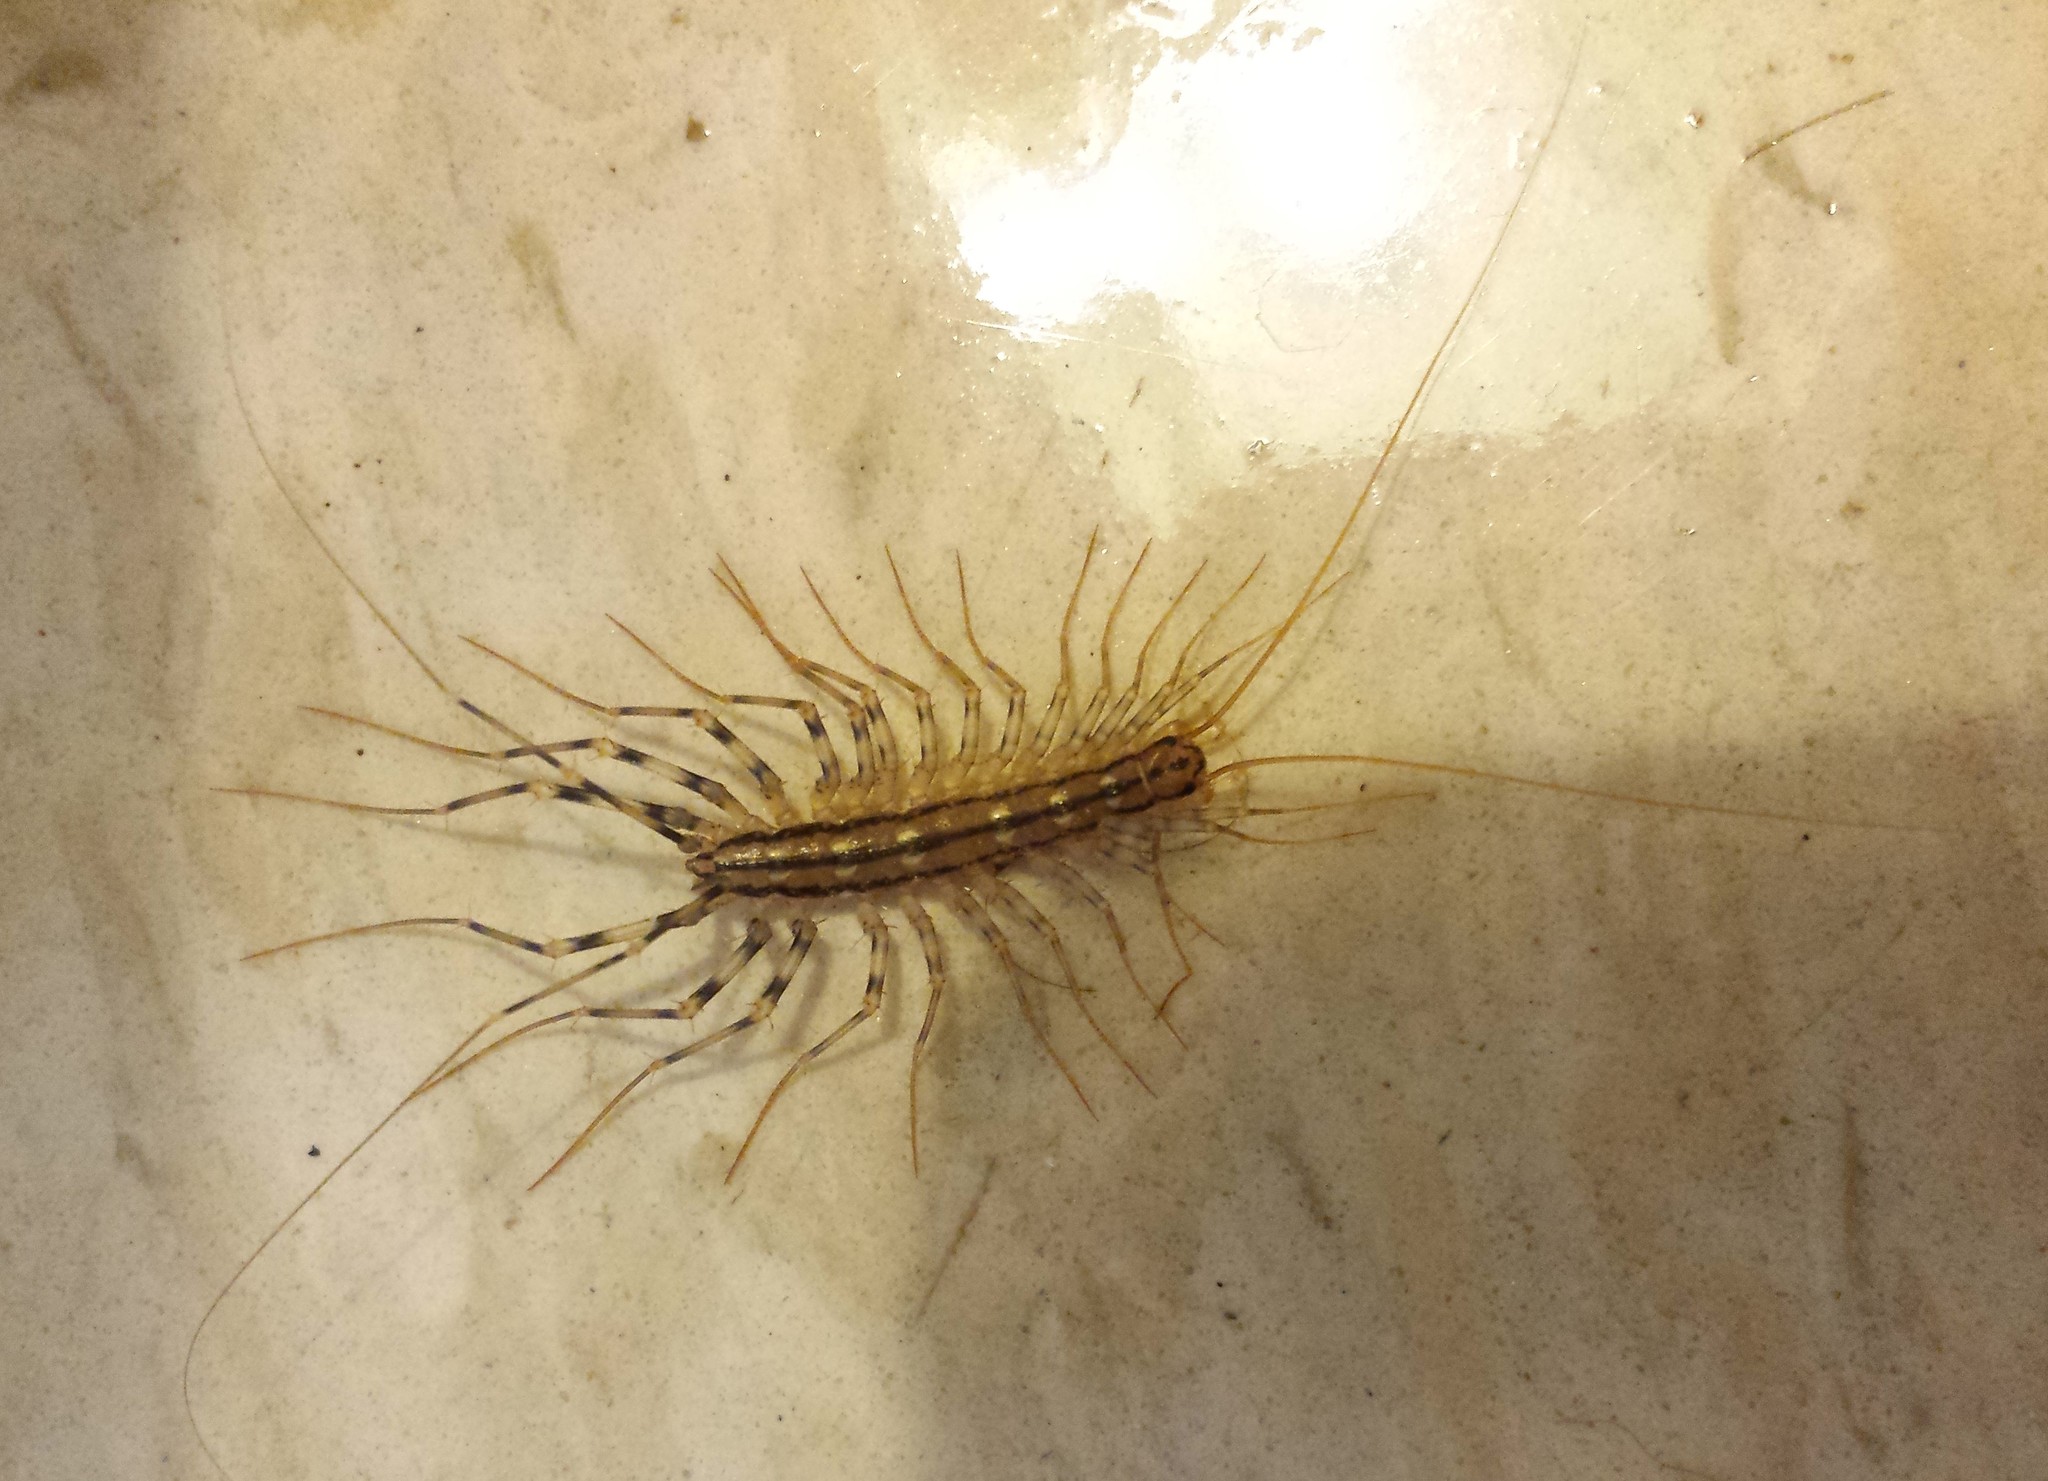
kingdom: Animalia
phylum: Arthropoda
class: Chilopoda
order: Scutigeromorpha
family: Scutigeridae
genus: Scutigera
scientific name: Scutigera coleoptrata
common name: House centipede
